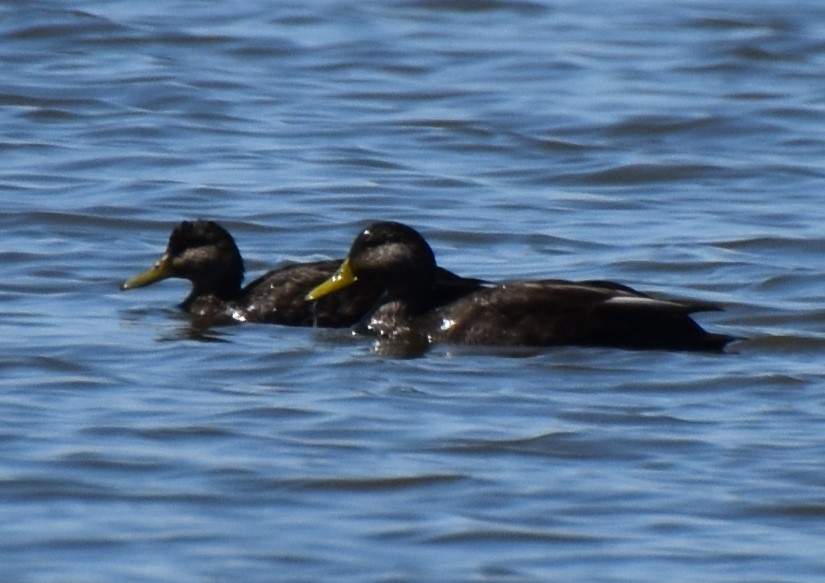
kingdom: Animalia
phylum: Chordata
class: Aves
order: Anseriformes
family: Anatidae
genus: Anas
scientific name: Anas rubripes
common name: American black duck
